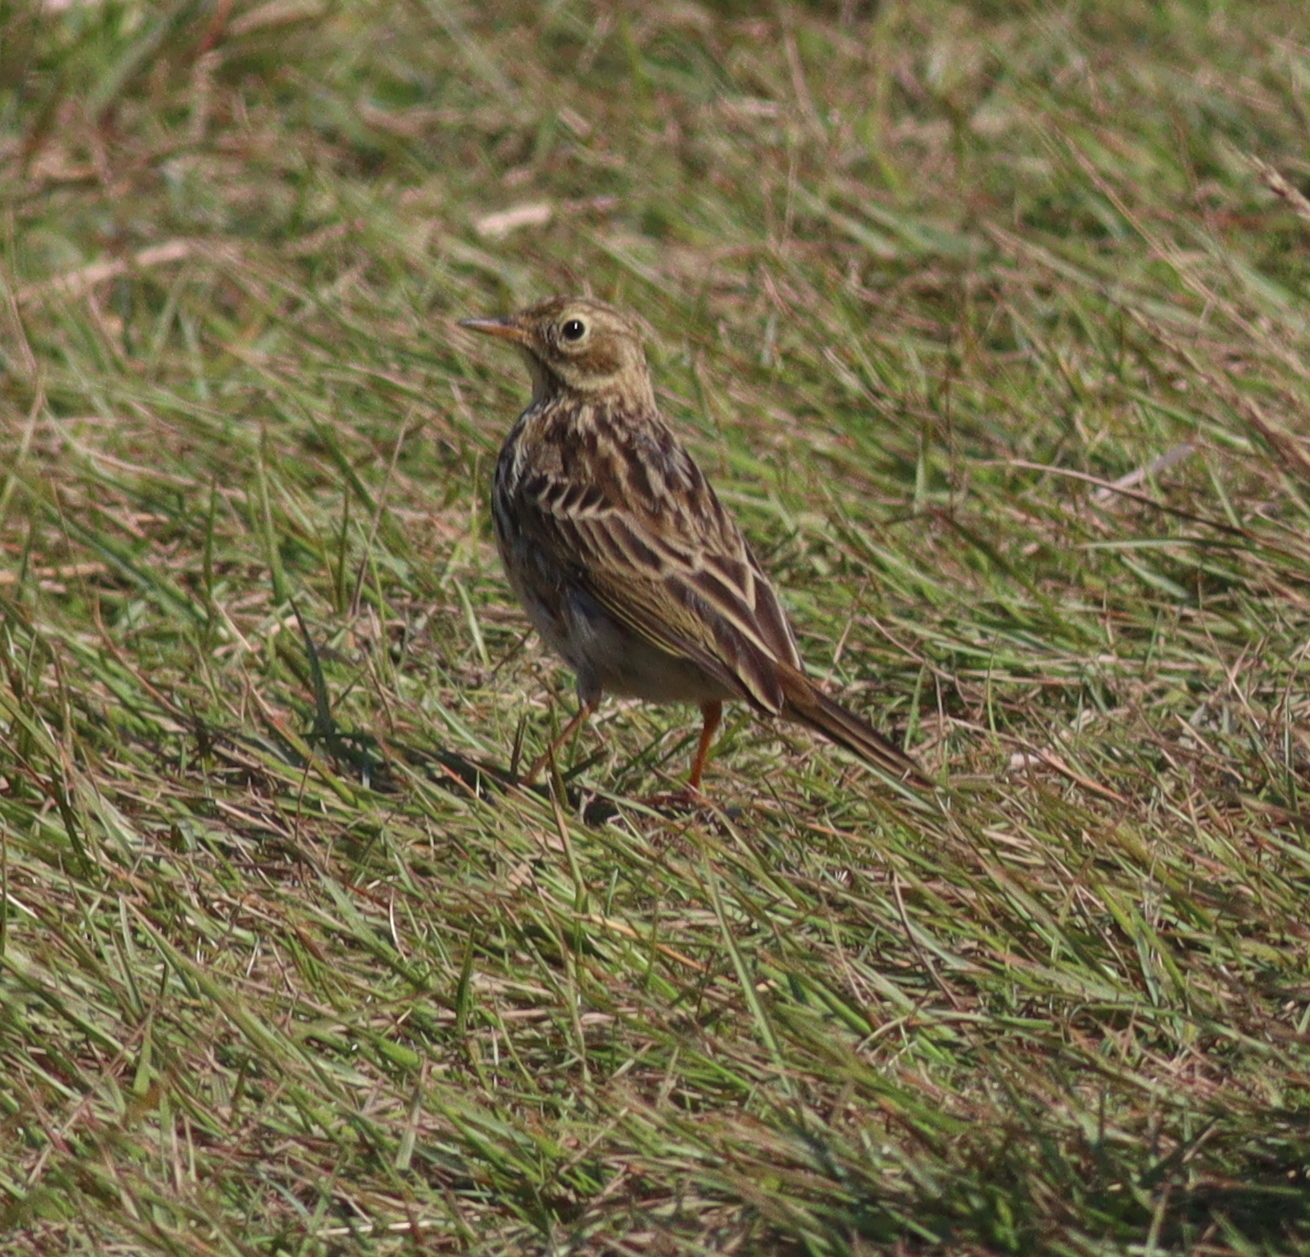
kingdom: Animalia
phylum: Chordata
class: Aves
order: Passeriformes
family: Motacillidae
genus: Anthus
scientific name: Anthus pratensis
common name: Meadow pipit
